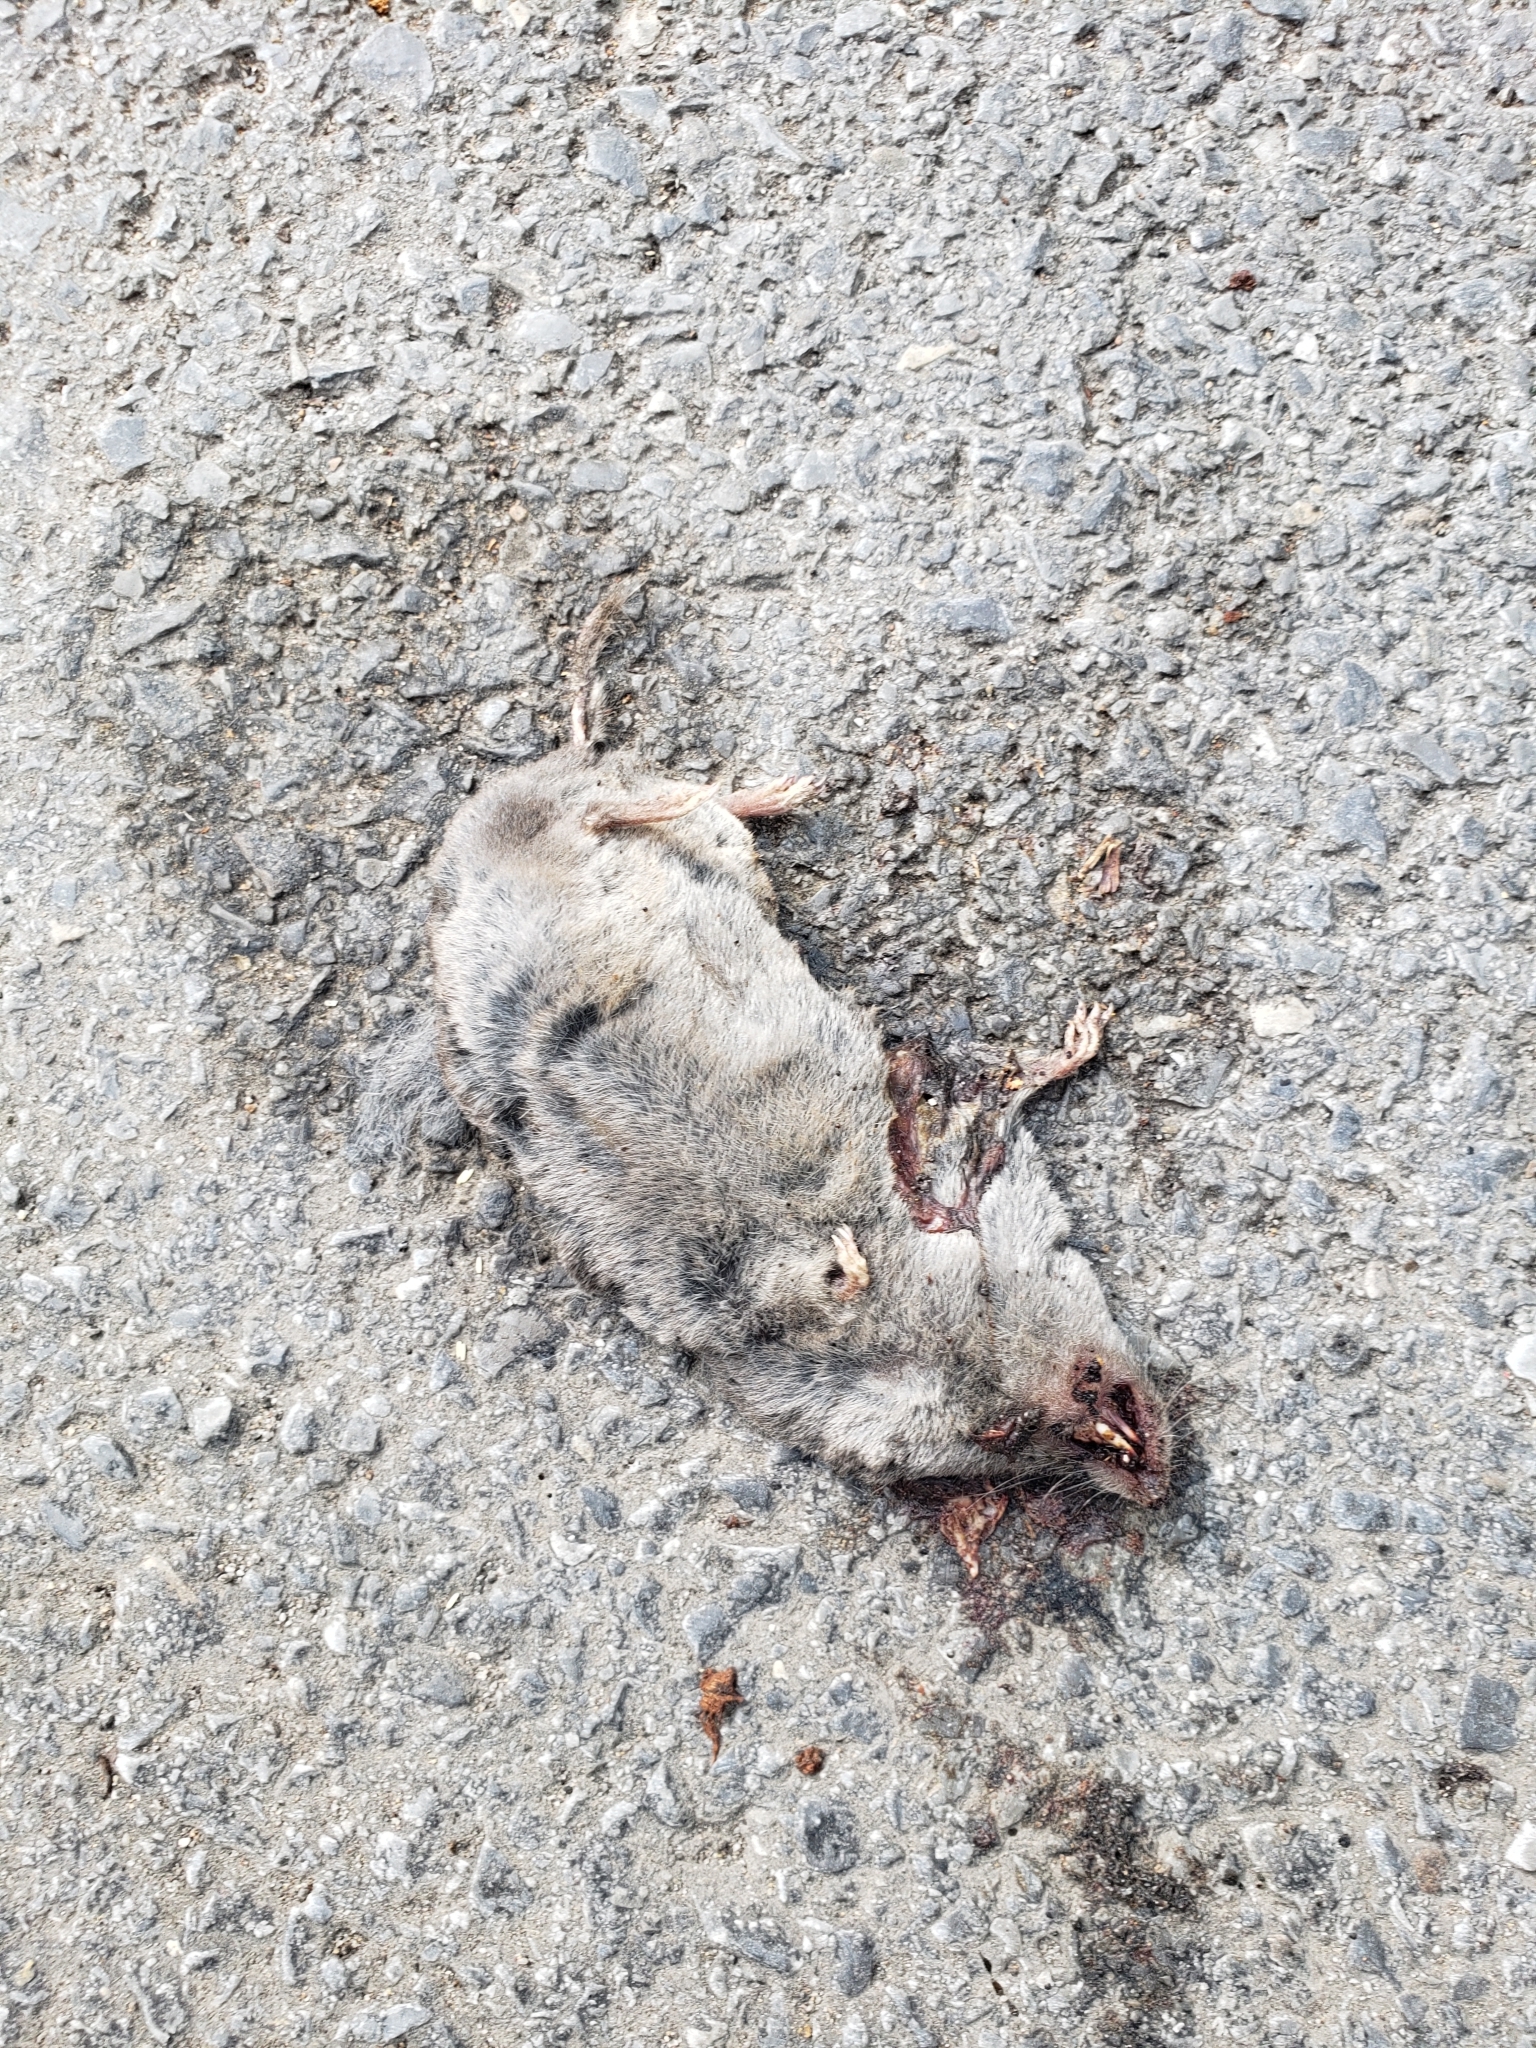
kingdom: Animalia
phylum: Chordata
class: Mammalia
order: Soricomorpha
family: Soricidae
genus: Blarina
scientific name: Blarina brevicauda
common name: Northern short-tailed shrew
